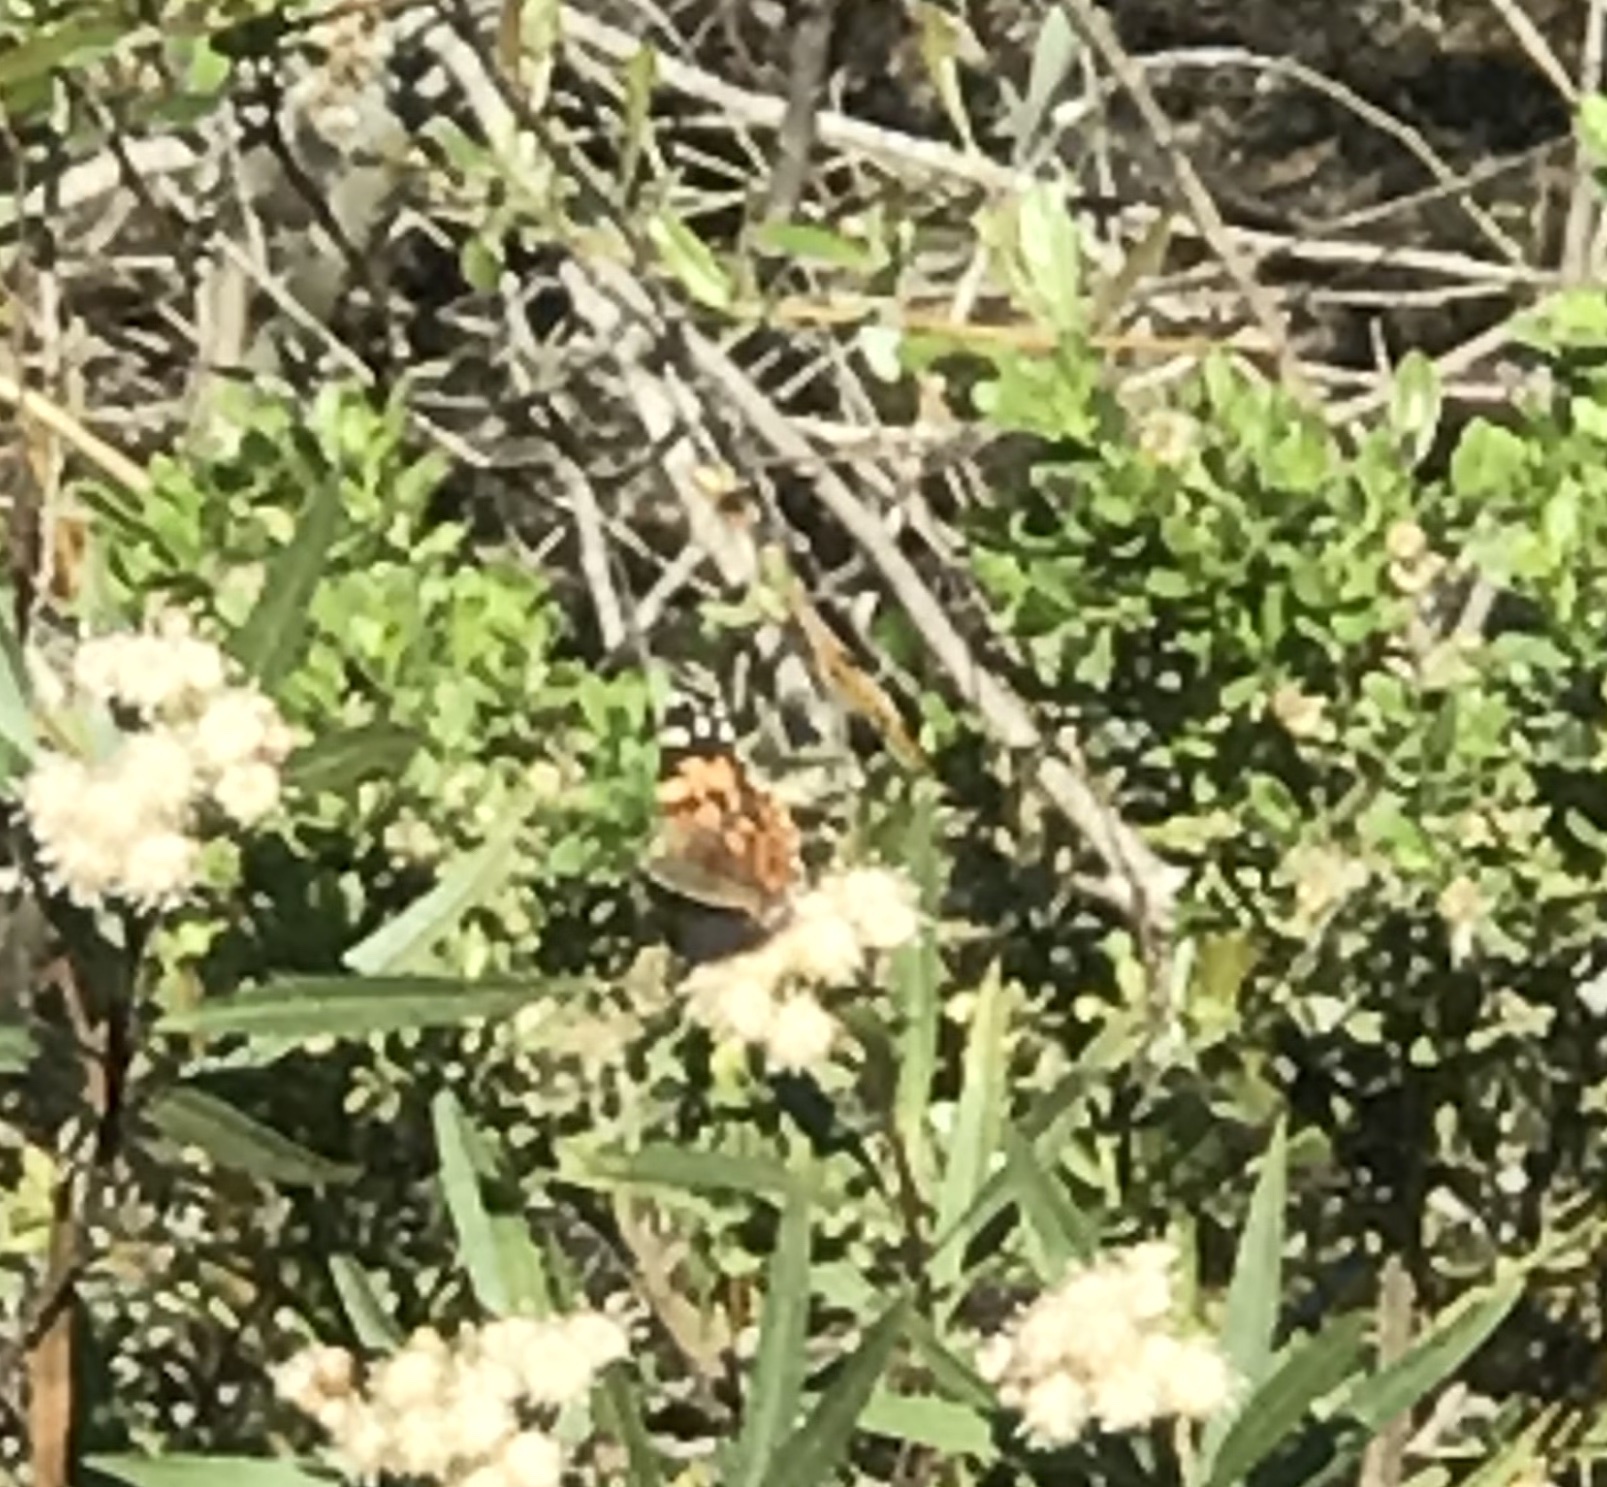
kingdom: Animalia
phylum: Arthropoda
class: Insecta
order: Lepidoptera
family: Nymphalidae
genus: Vanessa
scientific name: Vanessa cardui
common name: Painted lady
